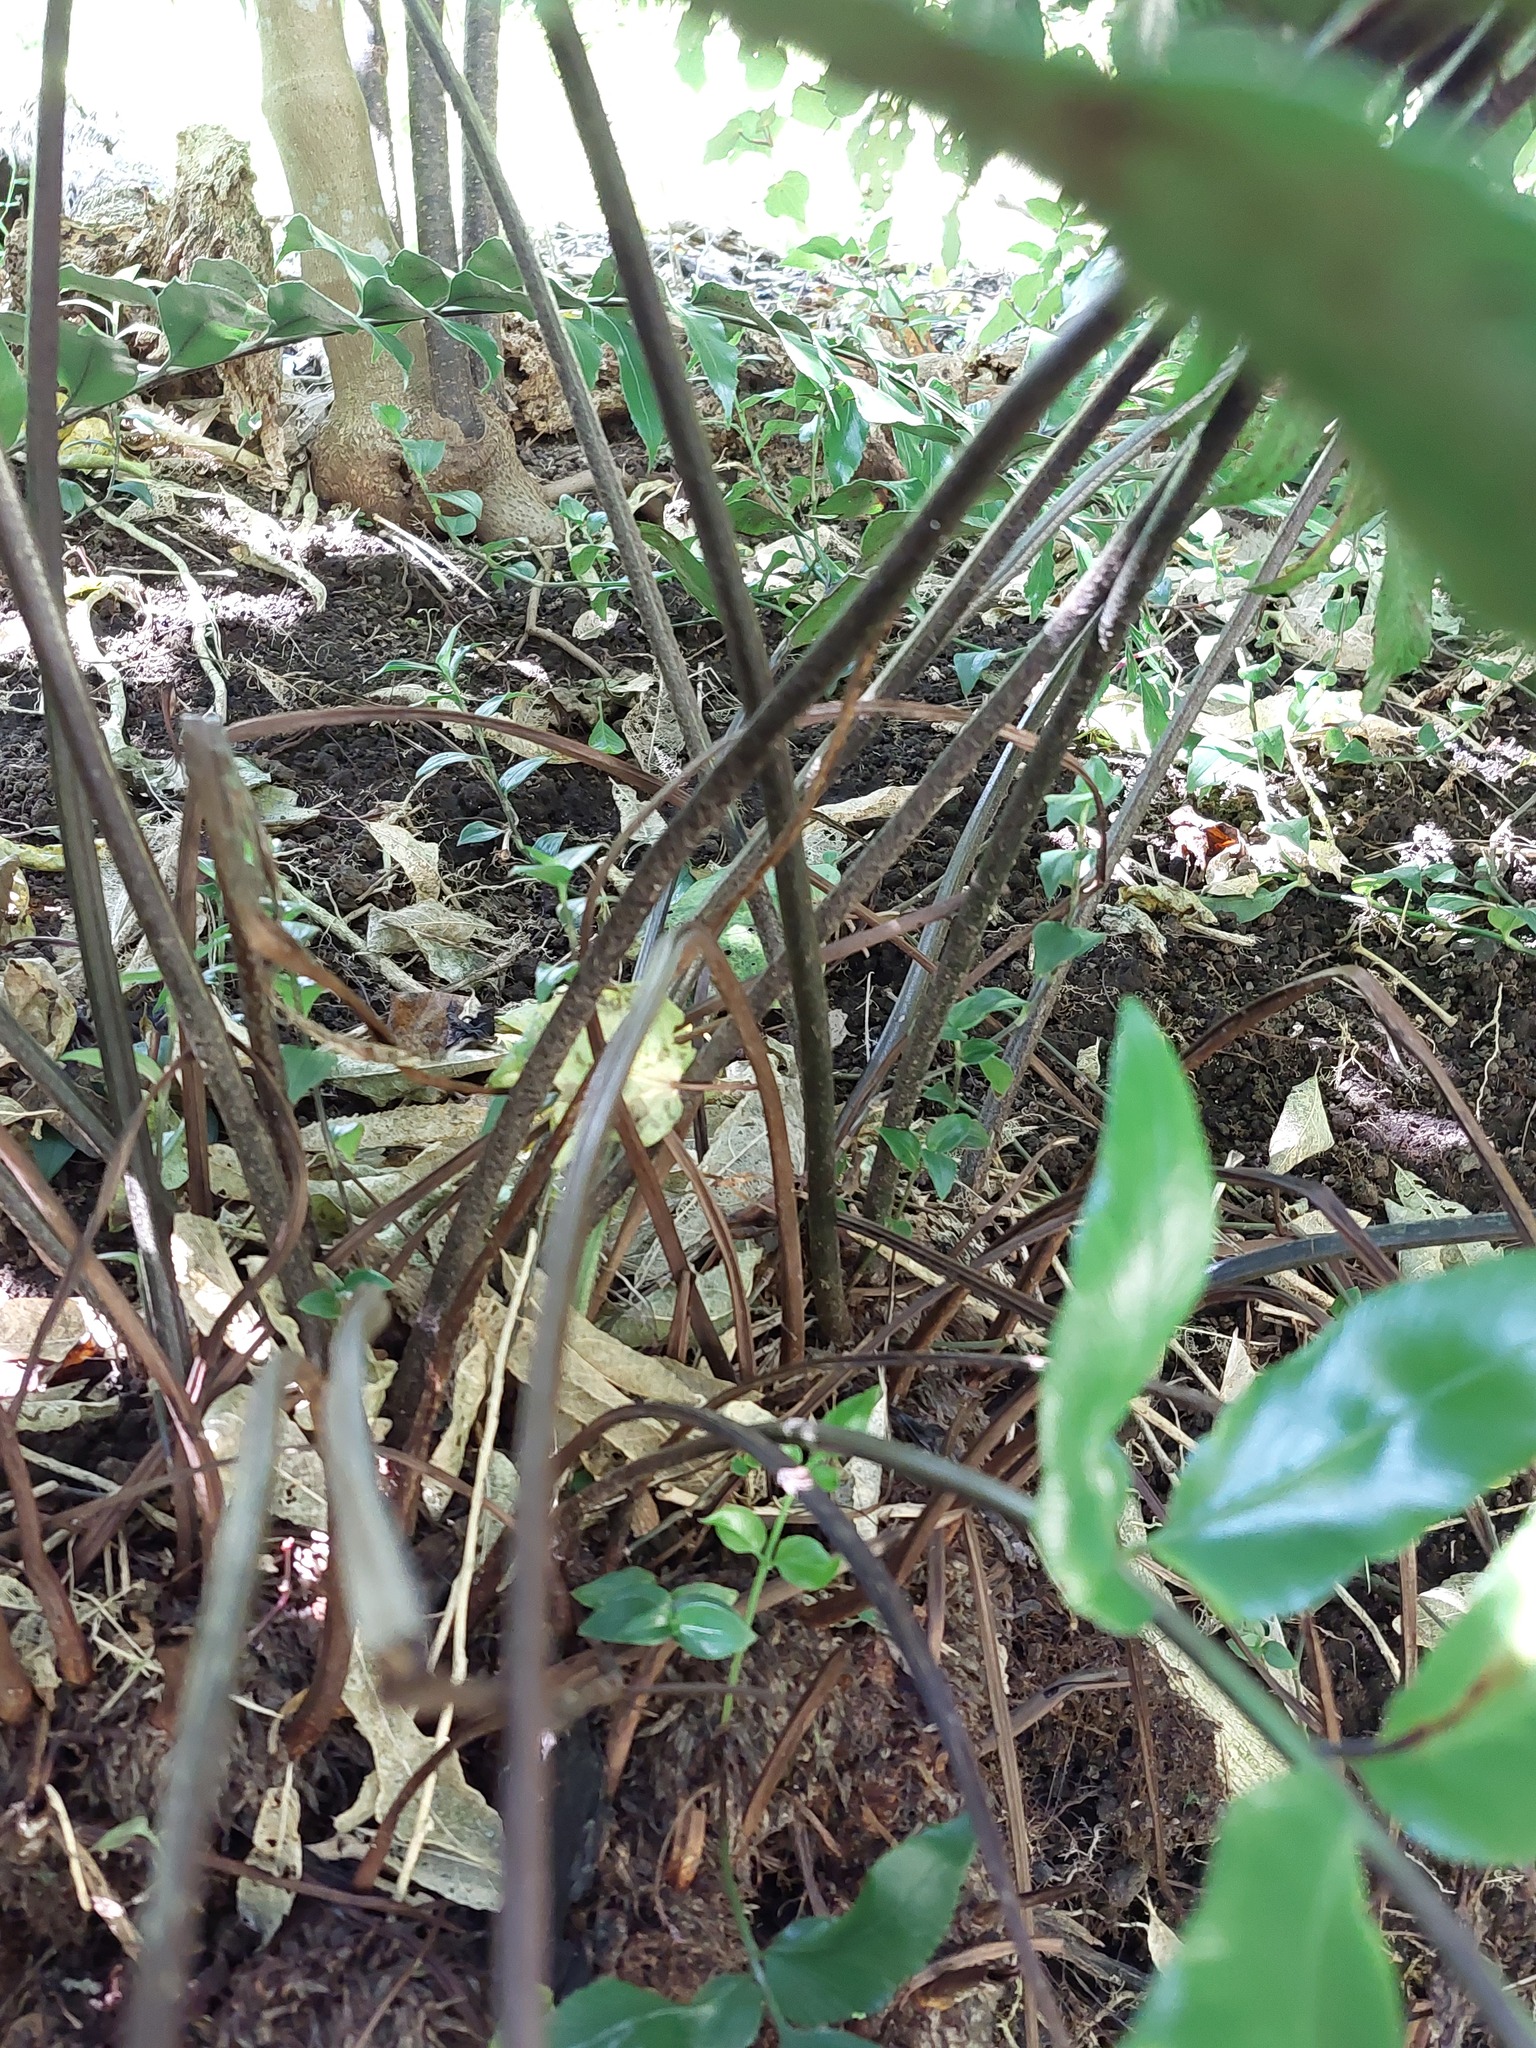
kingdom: Plantae
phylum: Tracheophyta
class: Polypodiopsida
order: Polypodiales
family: Aspleniaceae
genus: Asplenium
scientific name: Asplenium oblongifolium
